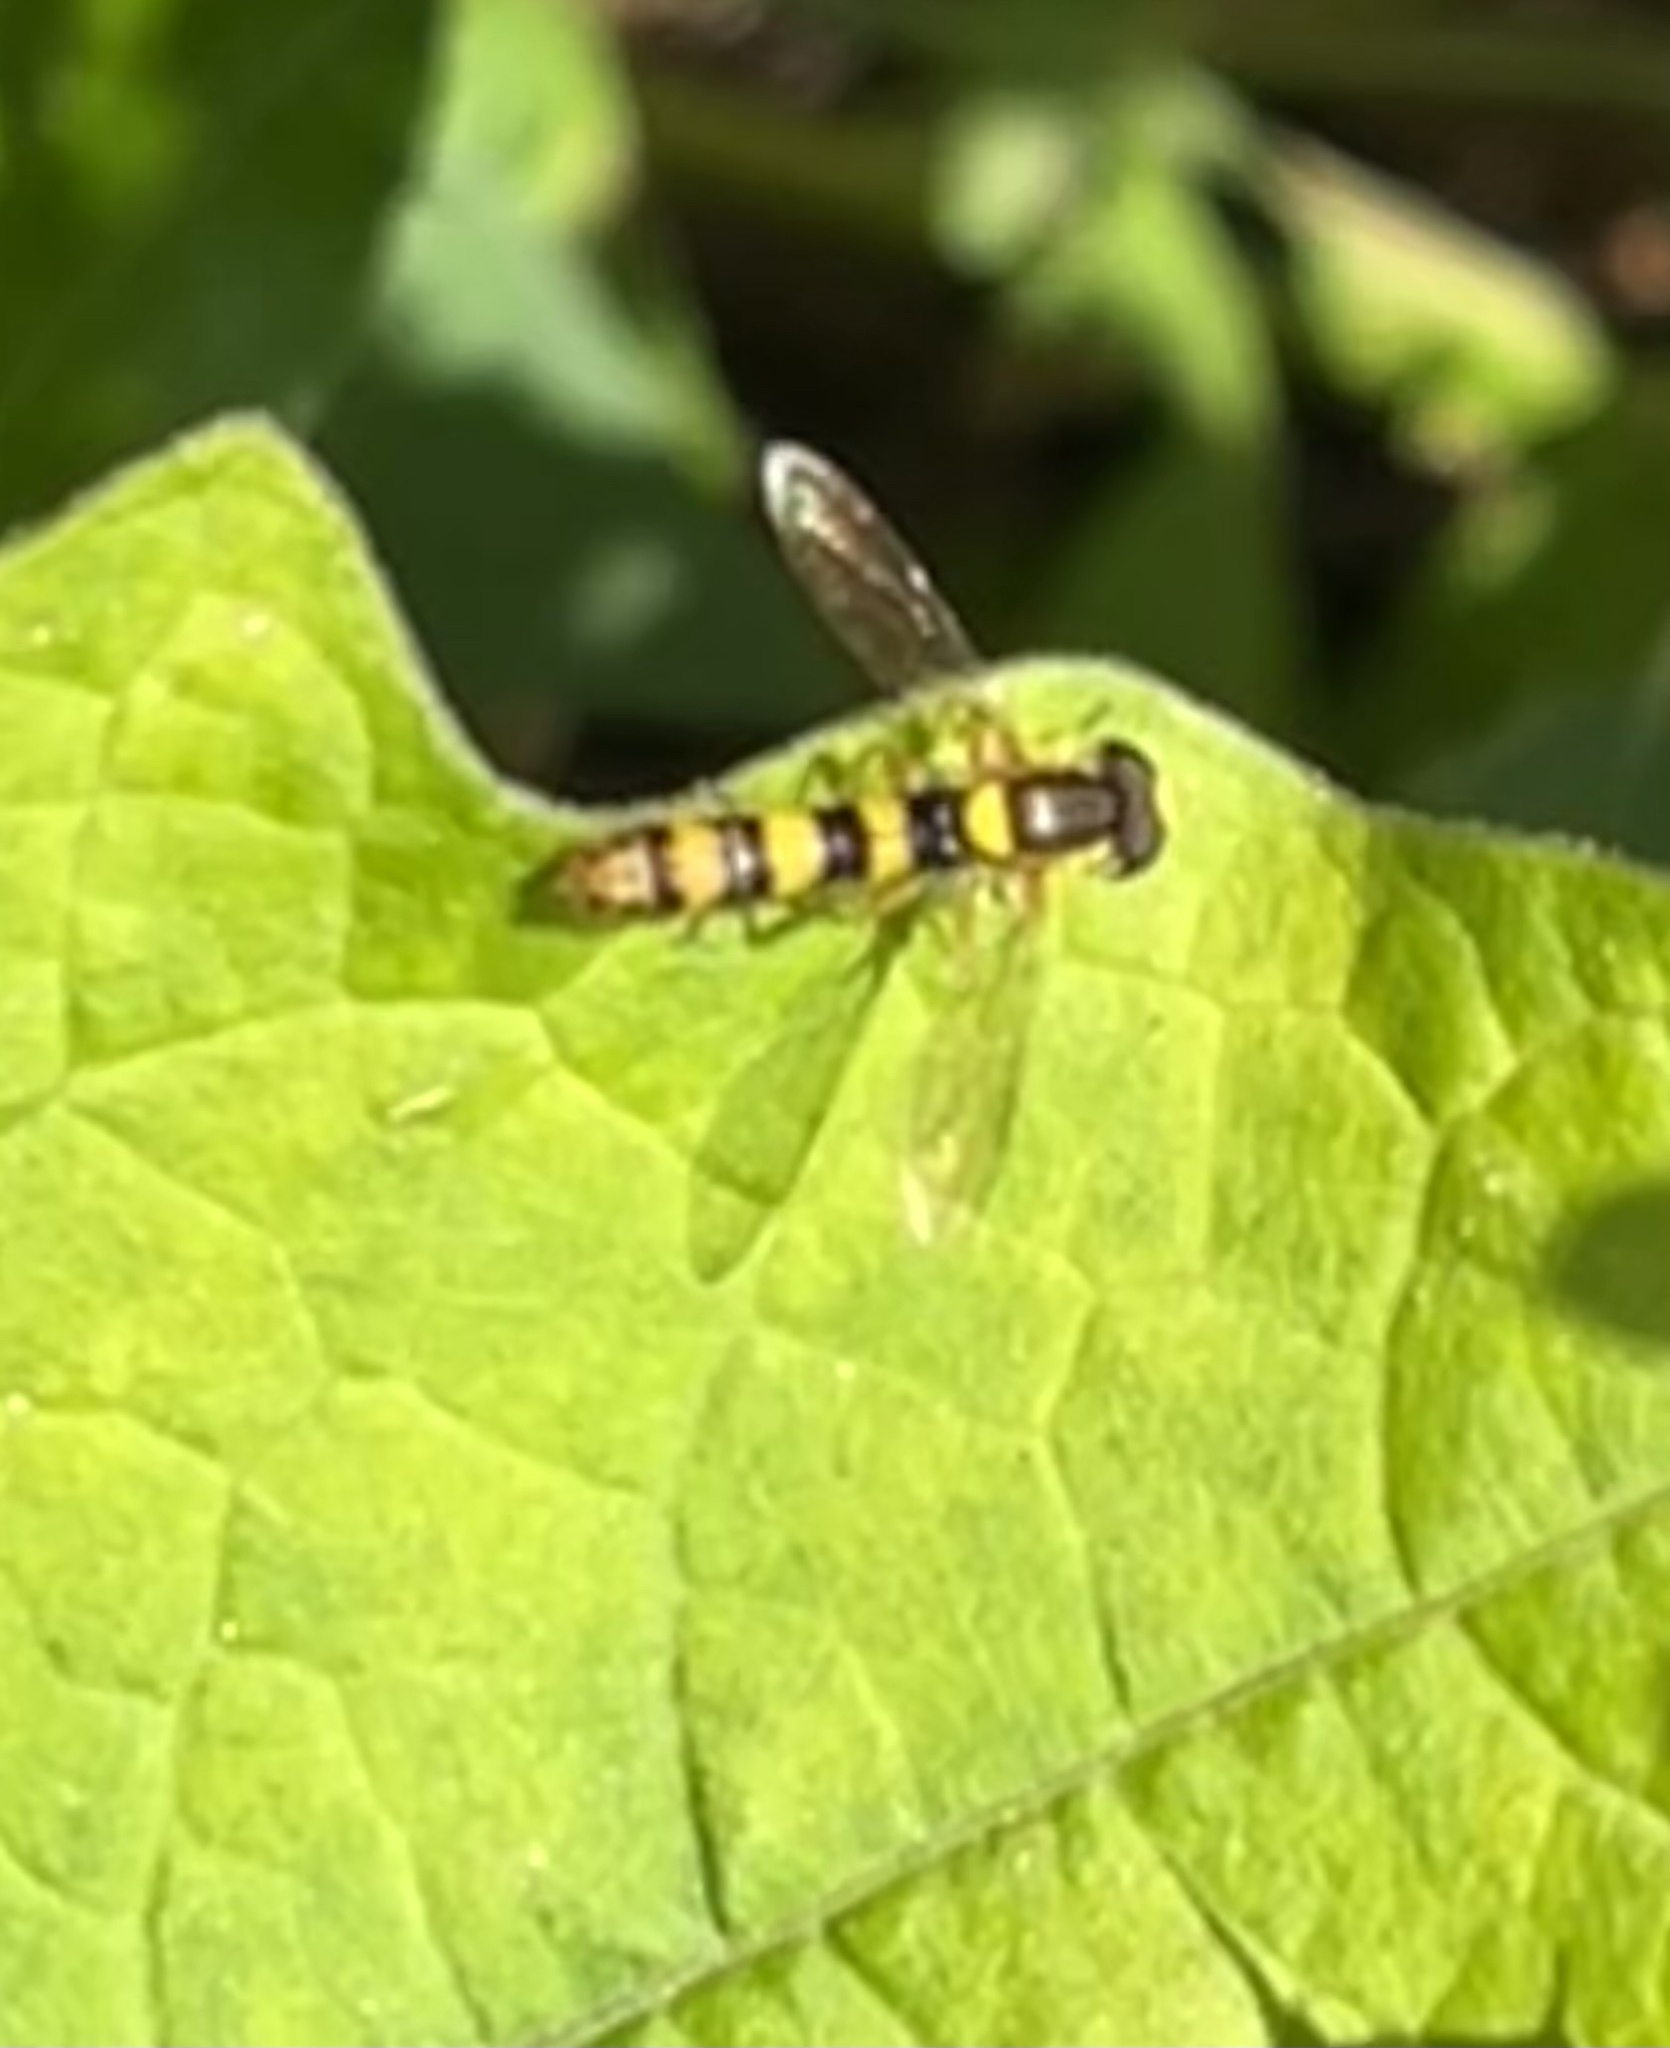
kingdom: Animalia
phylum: Arthropoda
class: Insecta
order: Diptera
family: Syrphidae
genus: Sphaerophoria
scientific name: Sphaerophoria scripta
